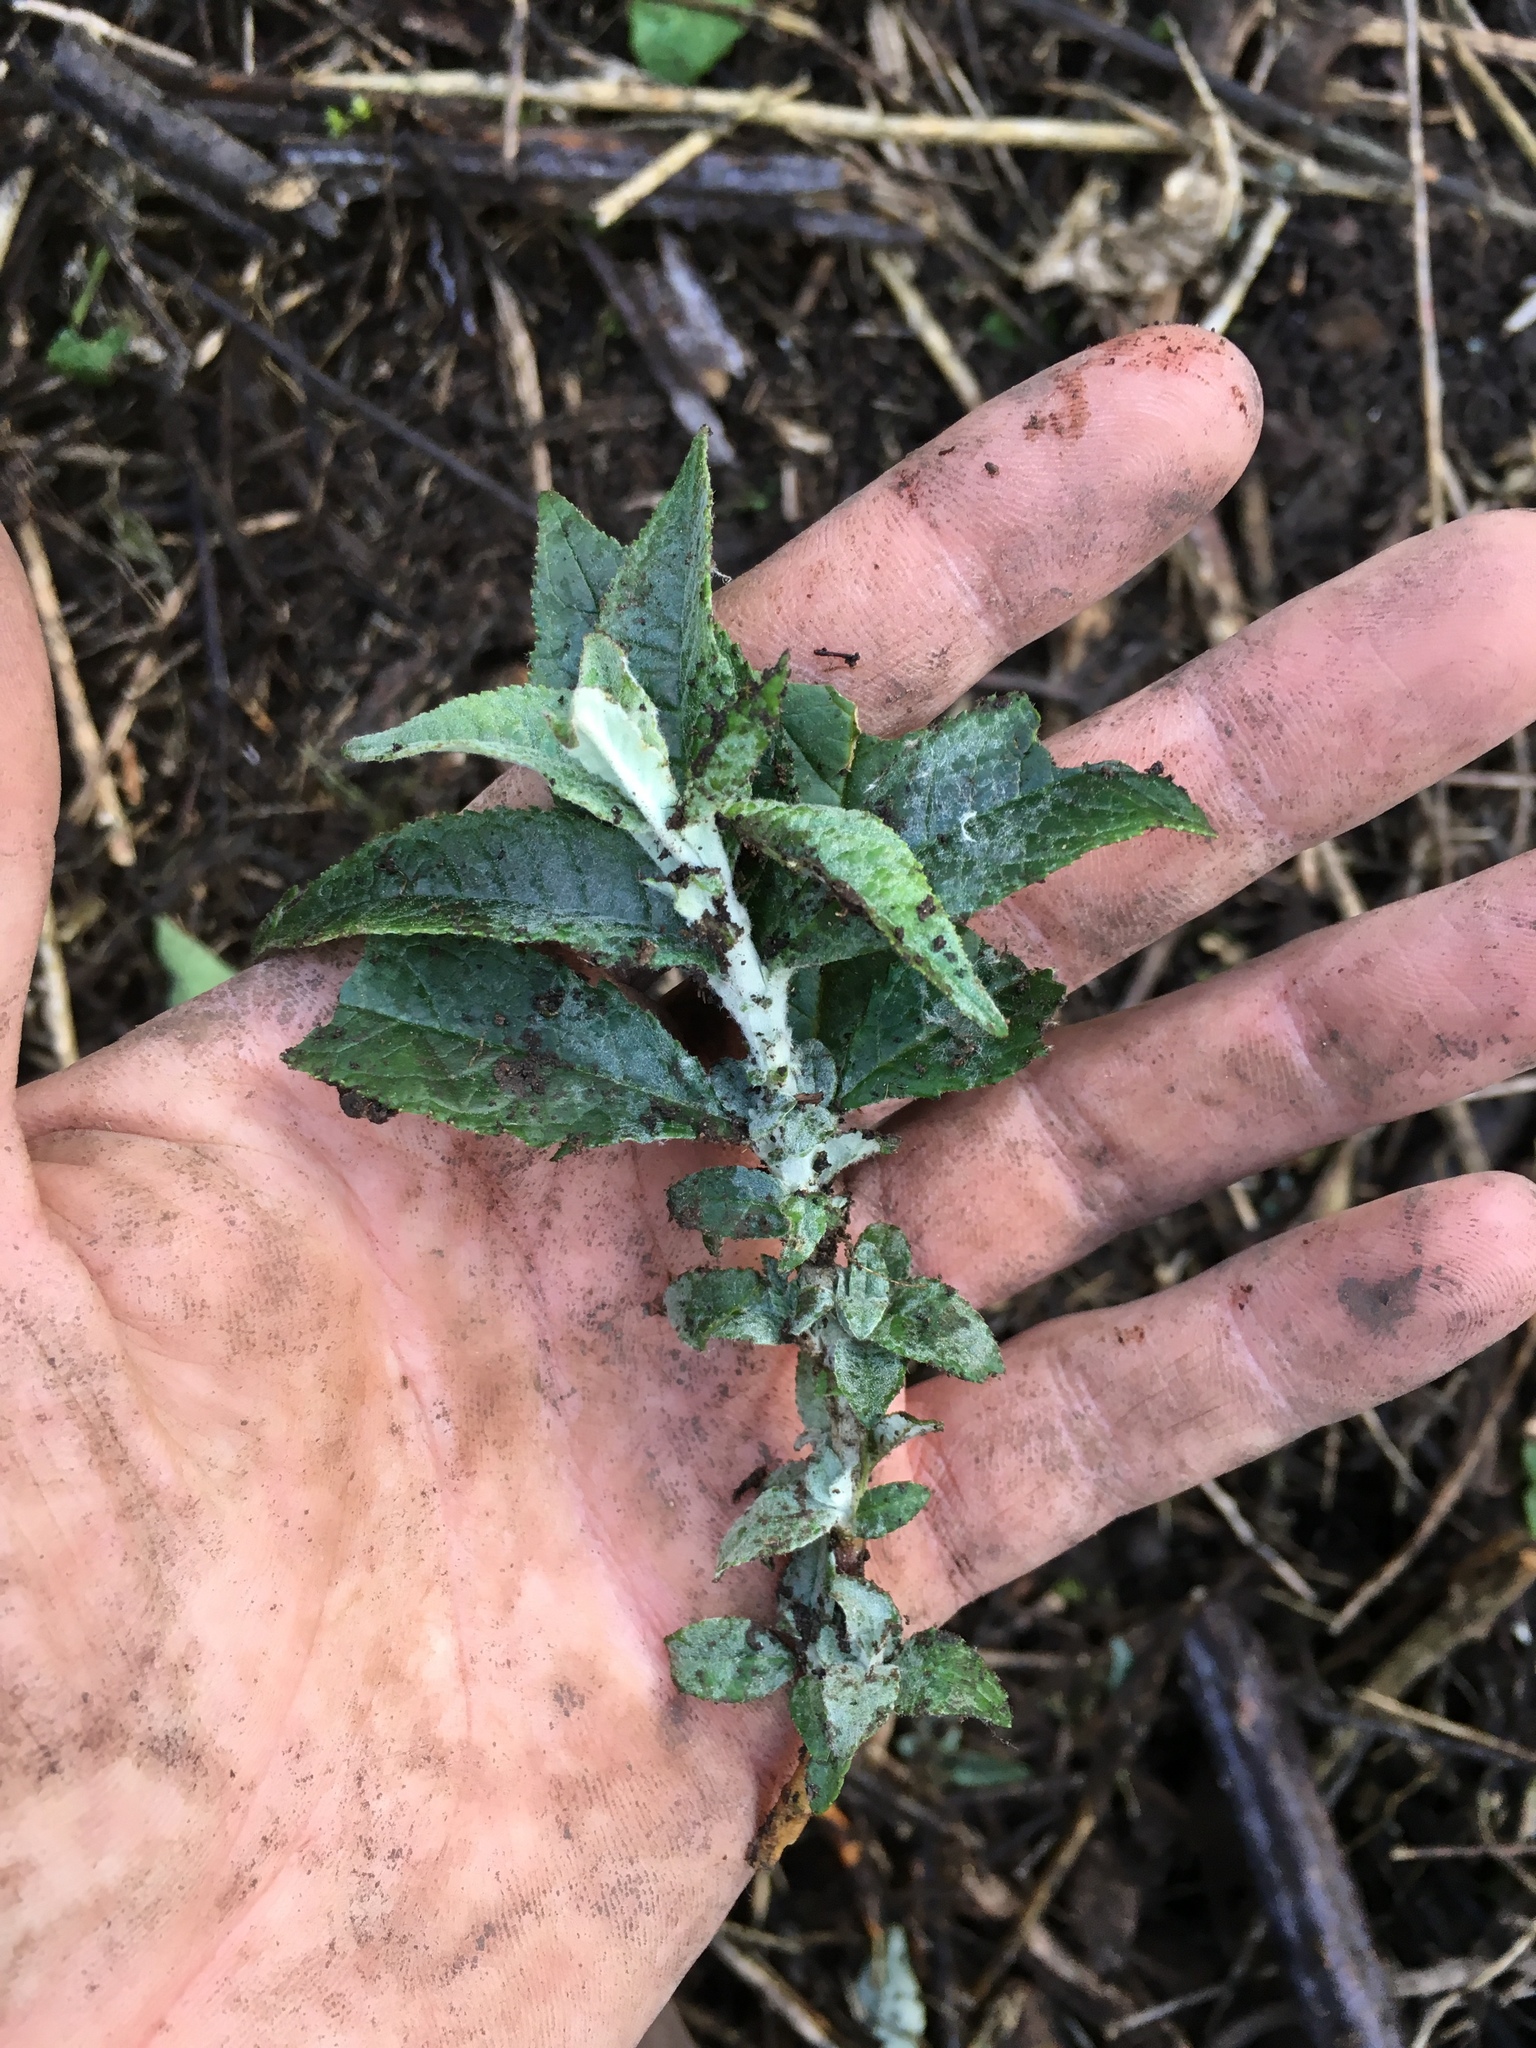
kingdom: Plantae
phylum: Tracheophyta
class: Magnoliopsida
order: Lamiales
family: Scrophulariaceae
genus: Buddleja
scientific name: Buddleja davidii
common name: Butterfly-bush
